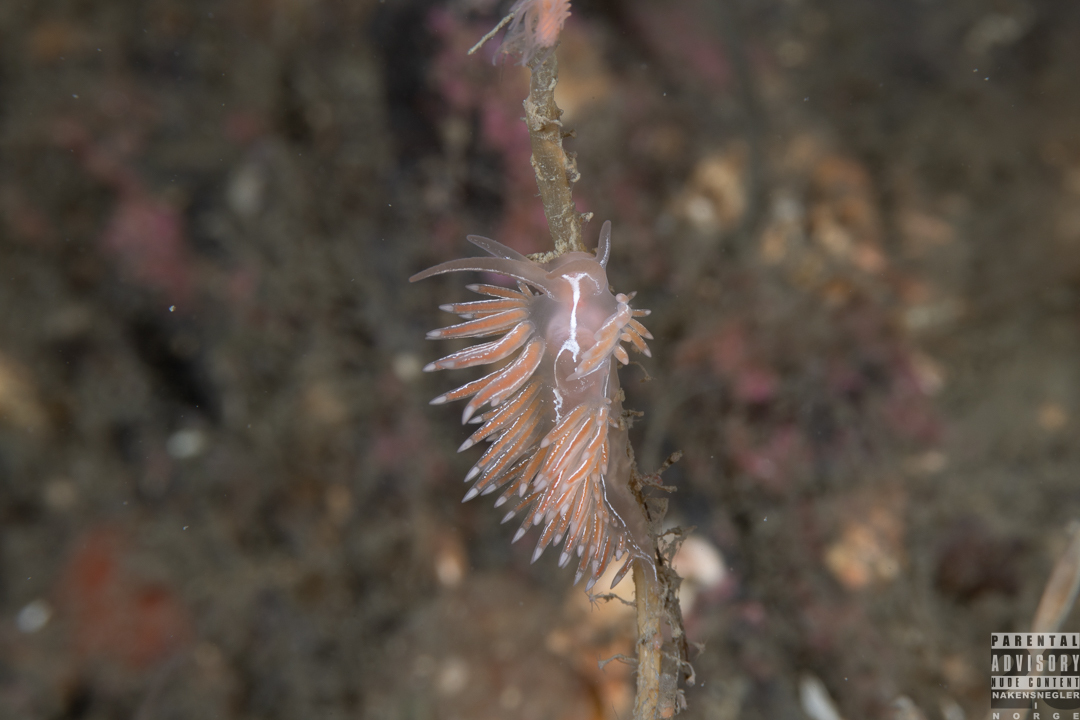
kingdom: Animalia
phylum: Mollusca
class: Gastropoda
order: Nudibranchia
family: Coryphellidae
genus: Coryphella
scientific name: Coryphella chriskaugei
